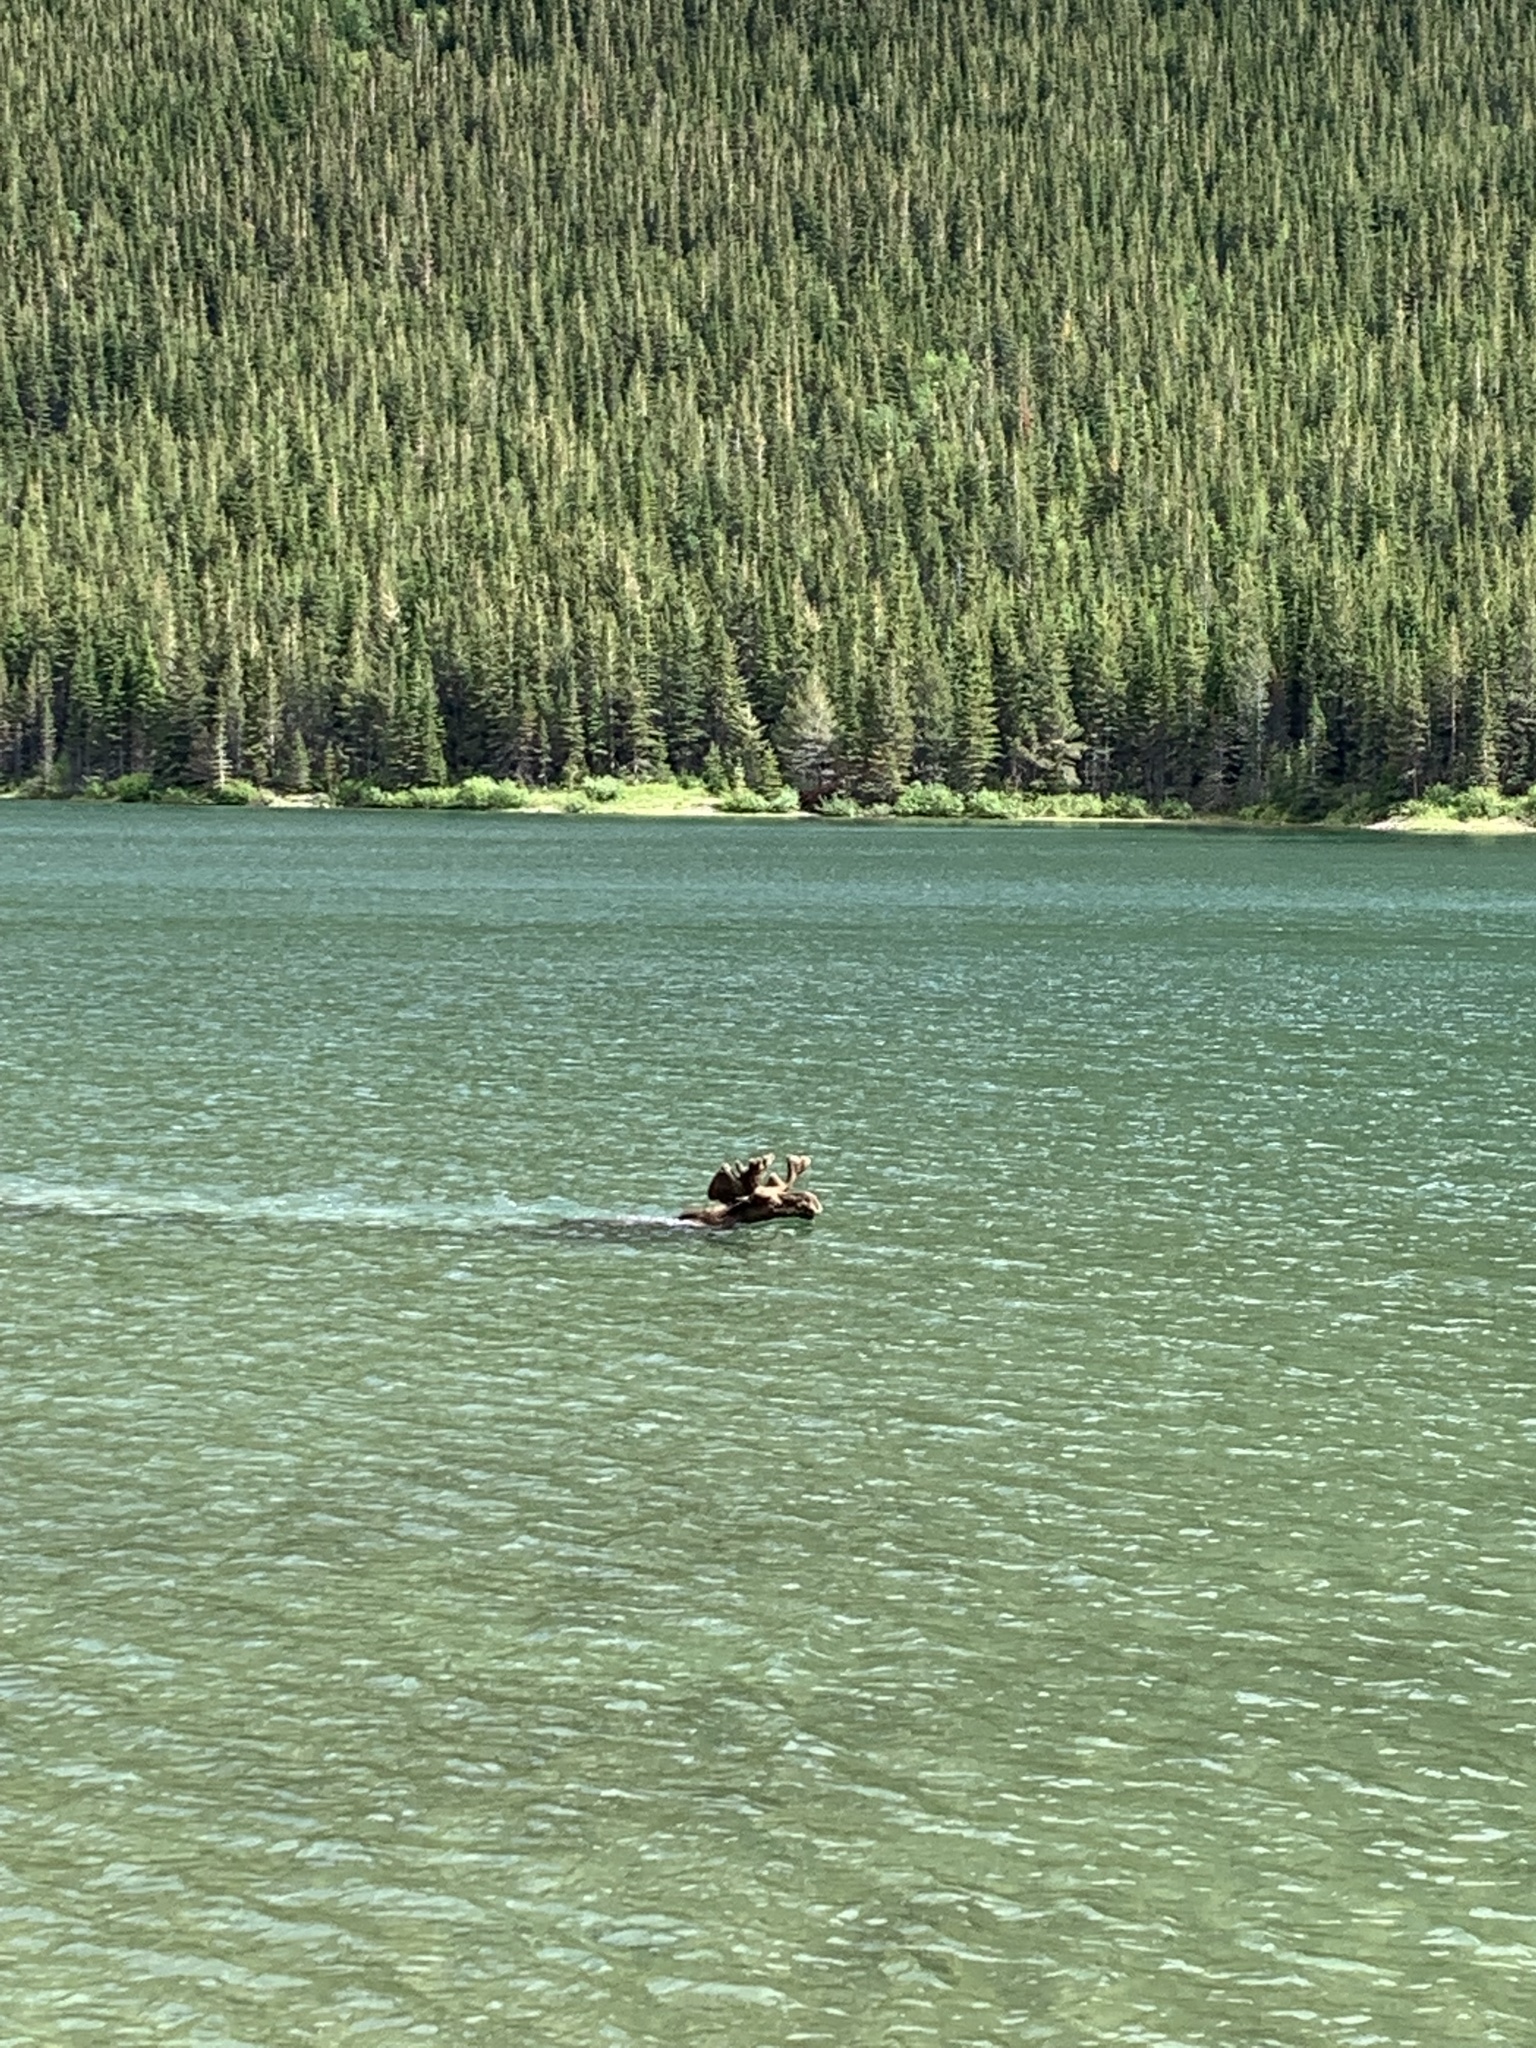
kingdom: Animalia
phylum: Chordata
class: Mammalia
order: Artiodactyla
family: Cervidae
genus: Alces
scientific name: Alces alces
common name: Moose
